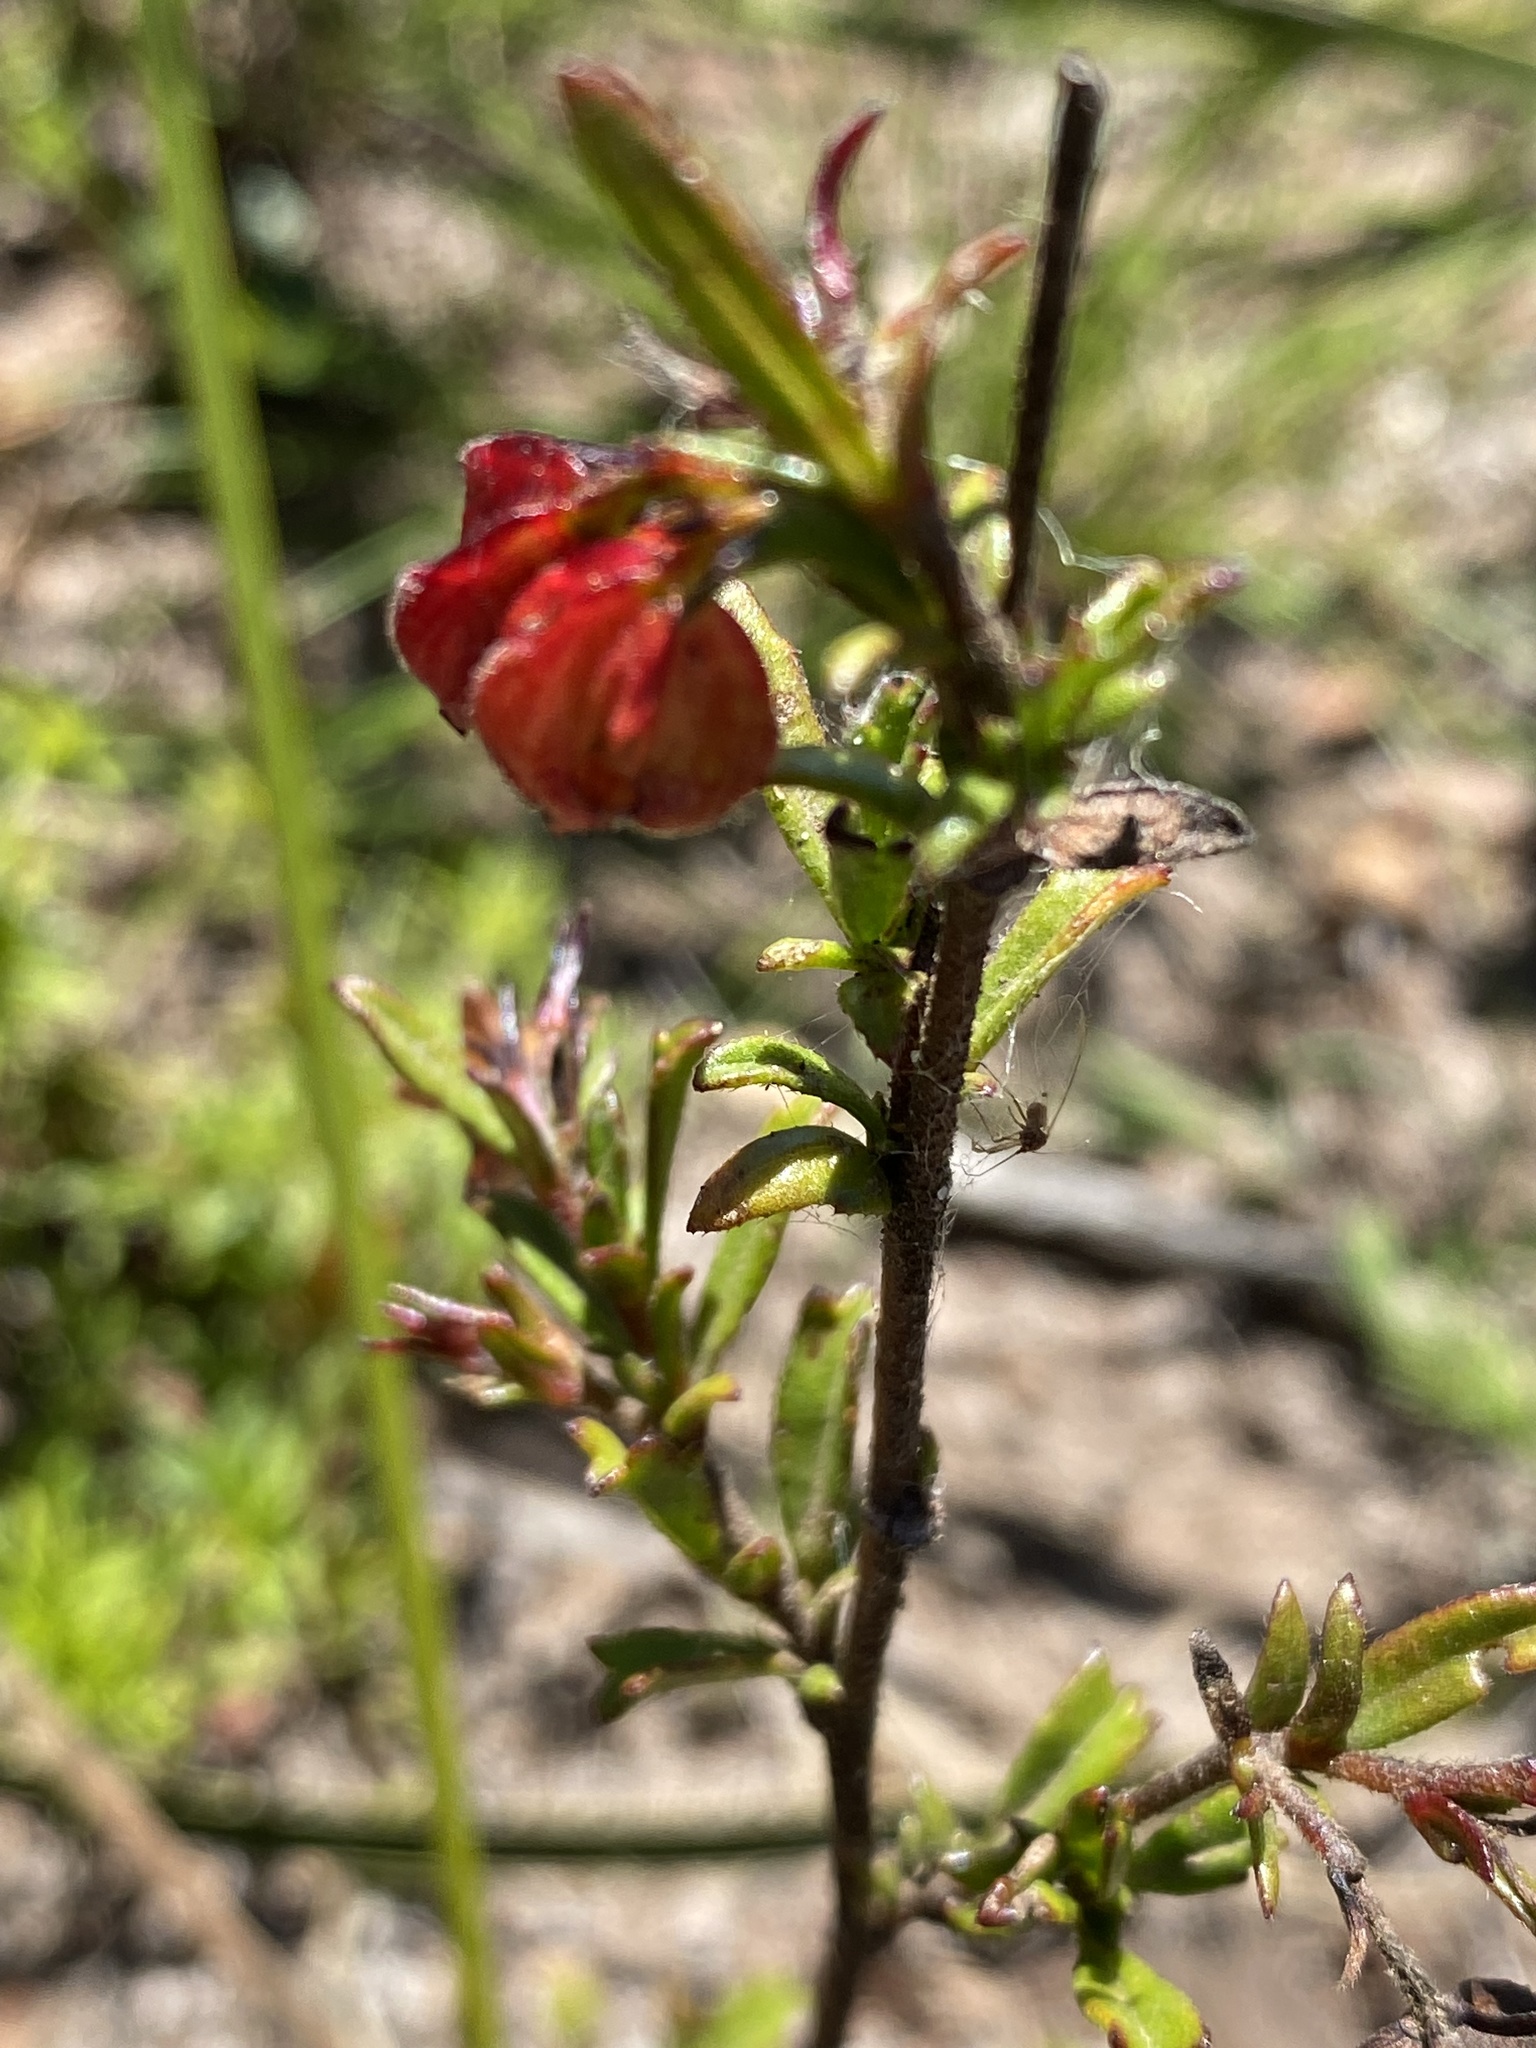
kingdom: Plantae
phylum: Tracheophyta
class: Magnoliopsida
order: Malvales
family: Malvaceae
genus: Hermannia
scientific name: Hermannia angularis
